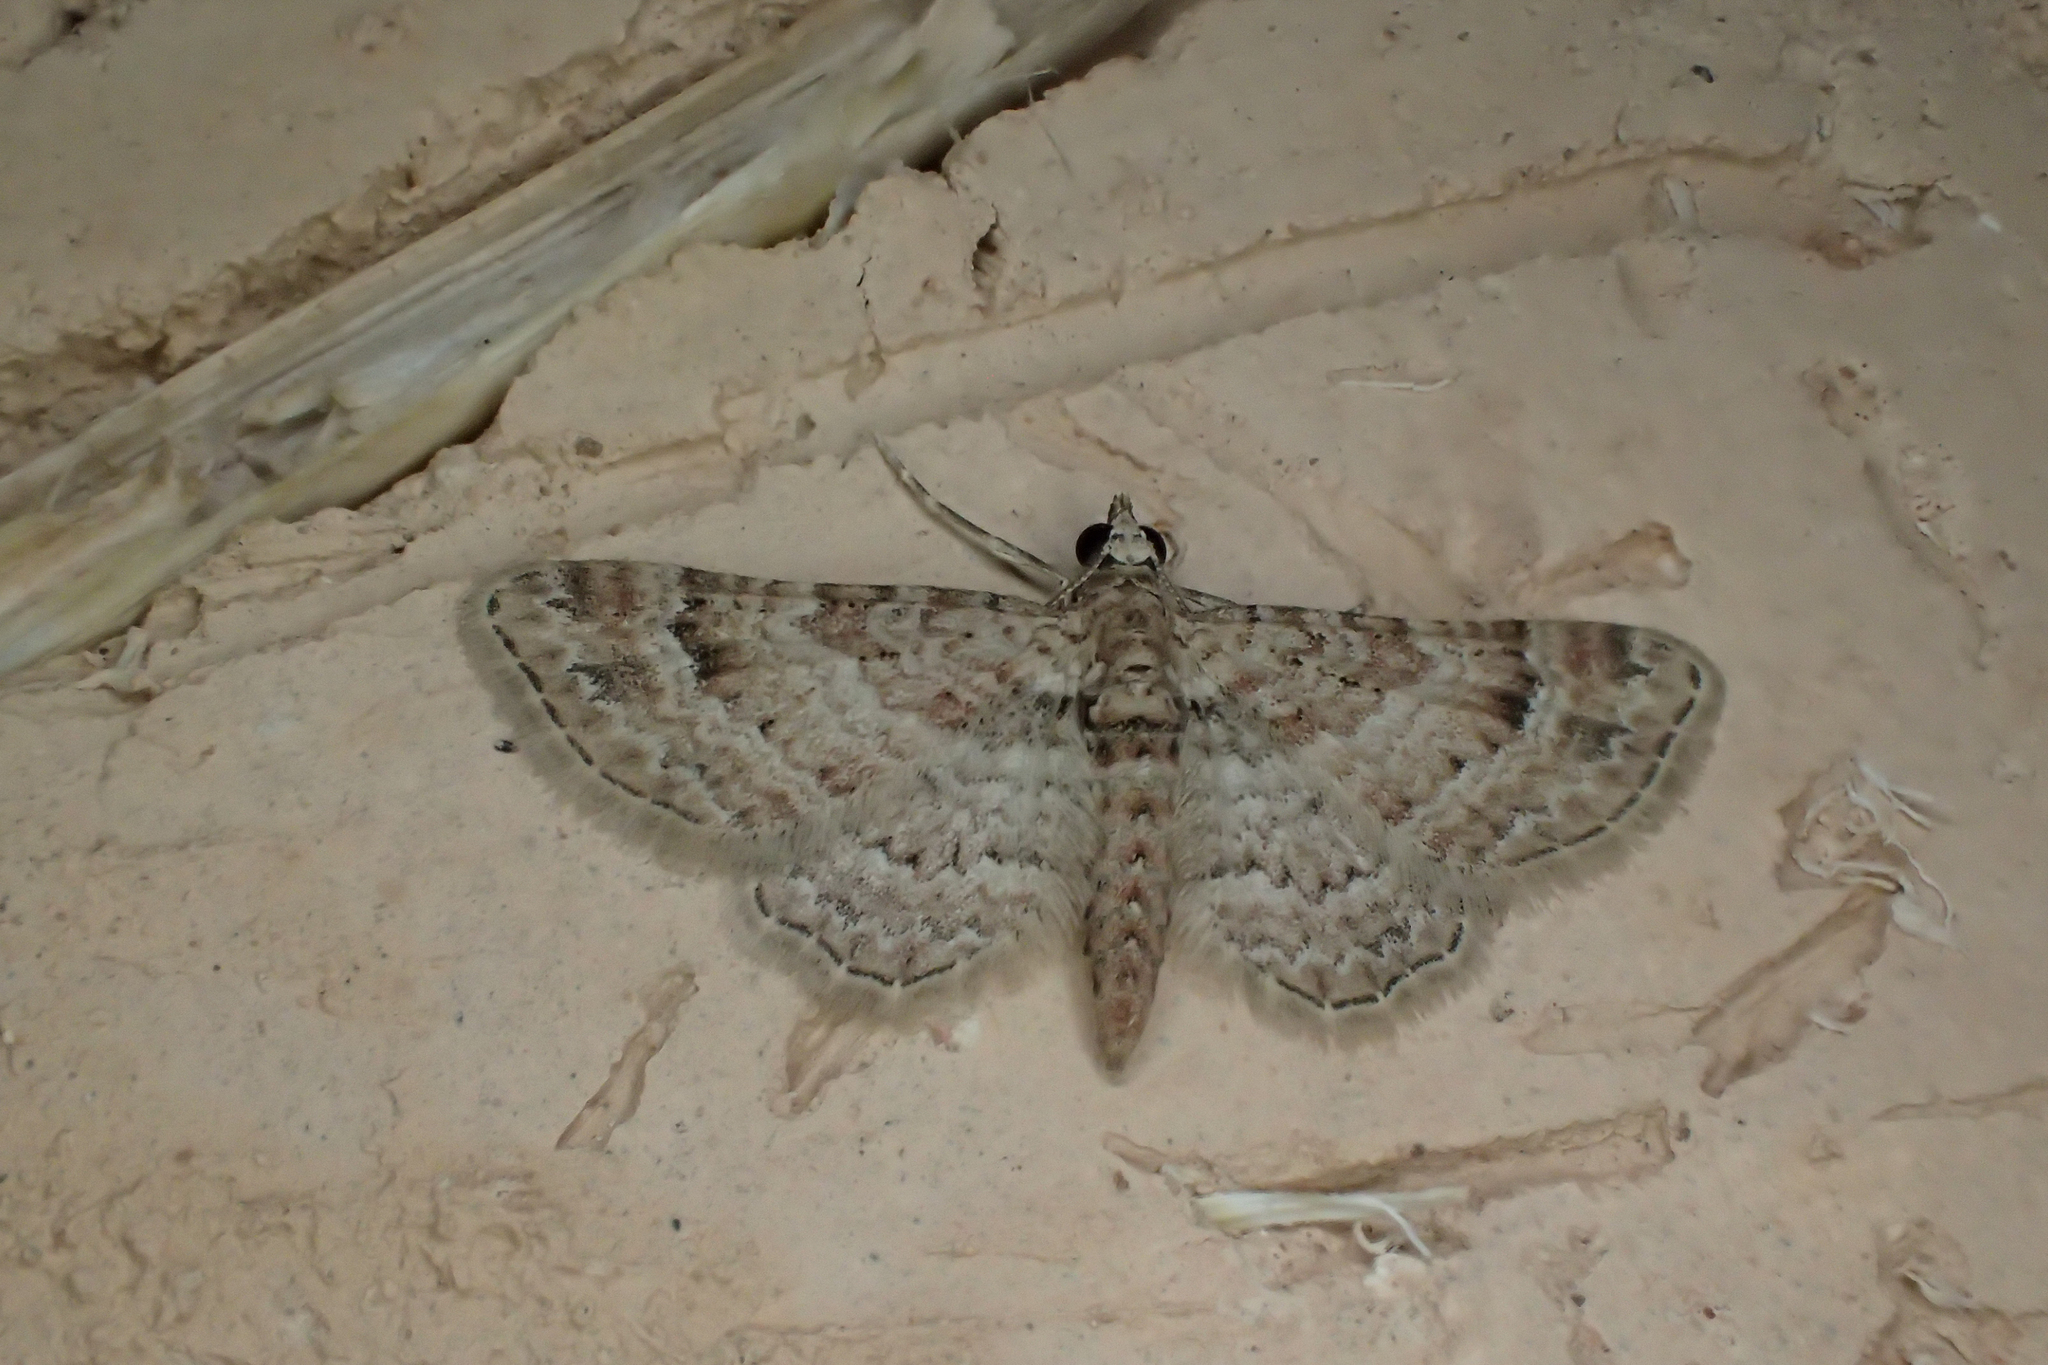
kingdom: Animalia
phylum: Arthropoda
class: Insecta
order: Lepidoptera
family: Geometridae
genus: Gymnoscelis
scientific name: Gymnoscelis rufifasciata
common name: Double-striped pug
